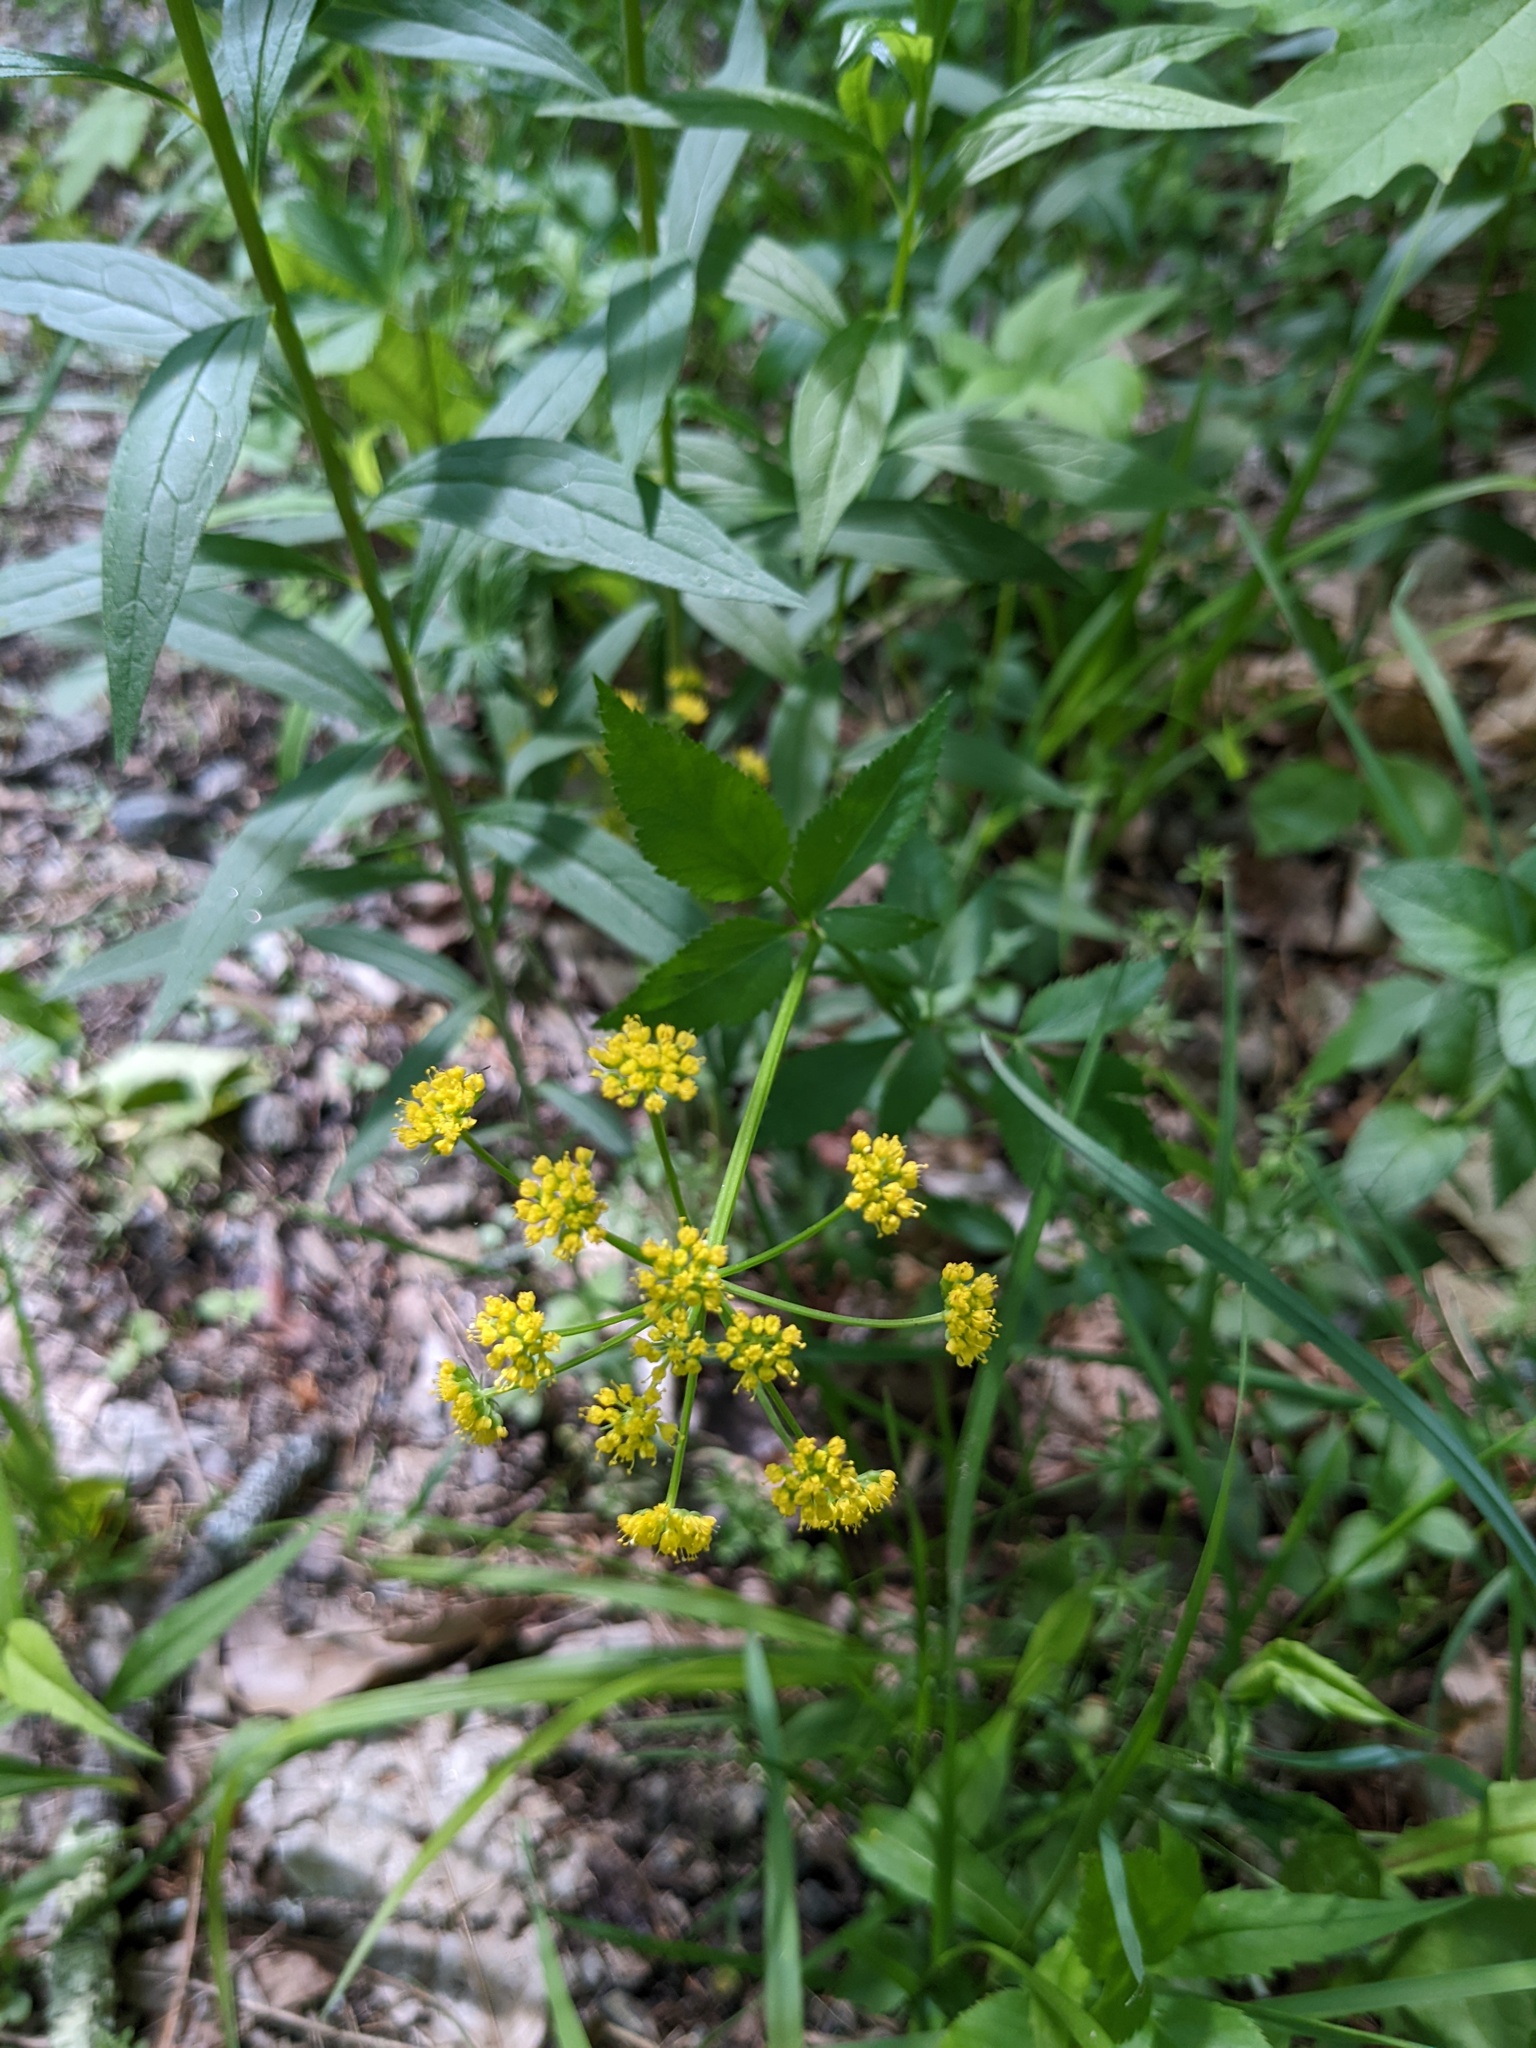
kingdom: Plantae
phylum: Tracheophyta
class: Magnoliopsida
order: Apiales
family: Apiaceae
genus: Zizia
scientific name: Zizia aurea
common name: Golden alexanders
